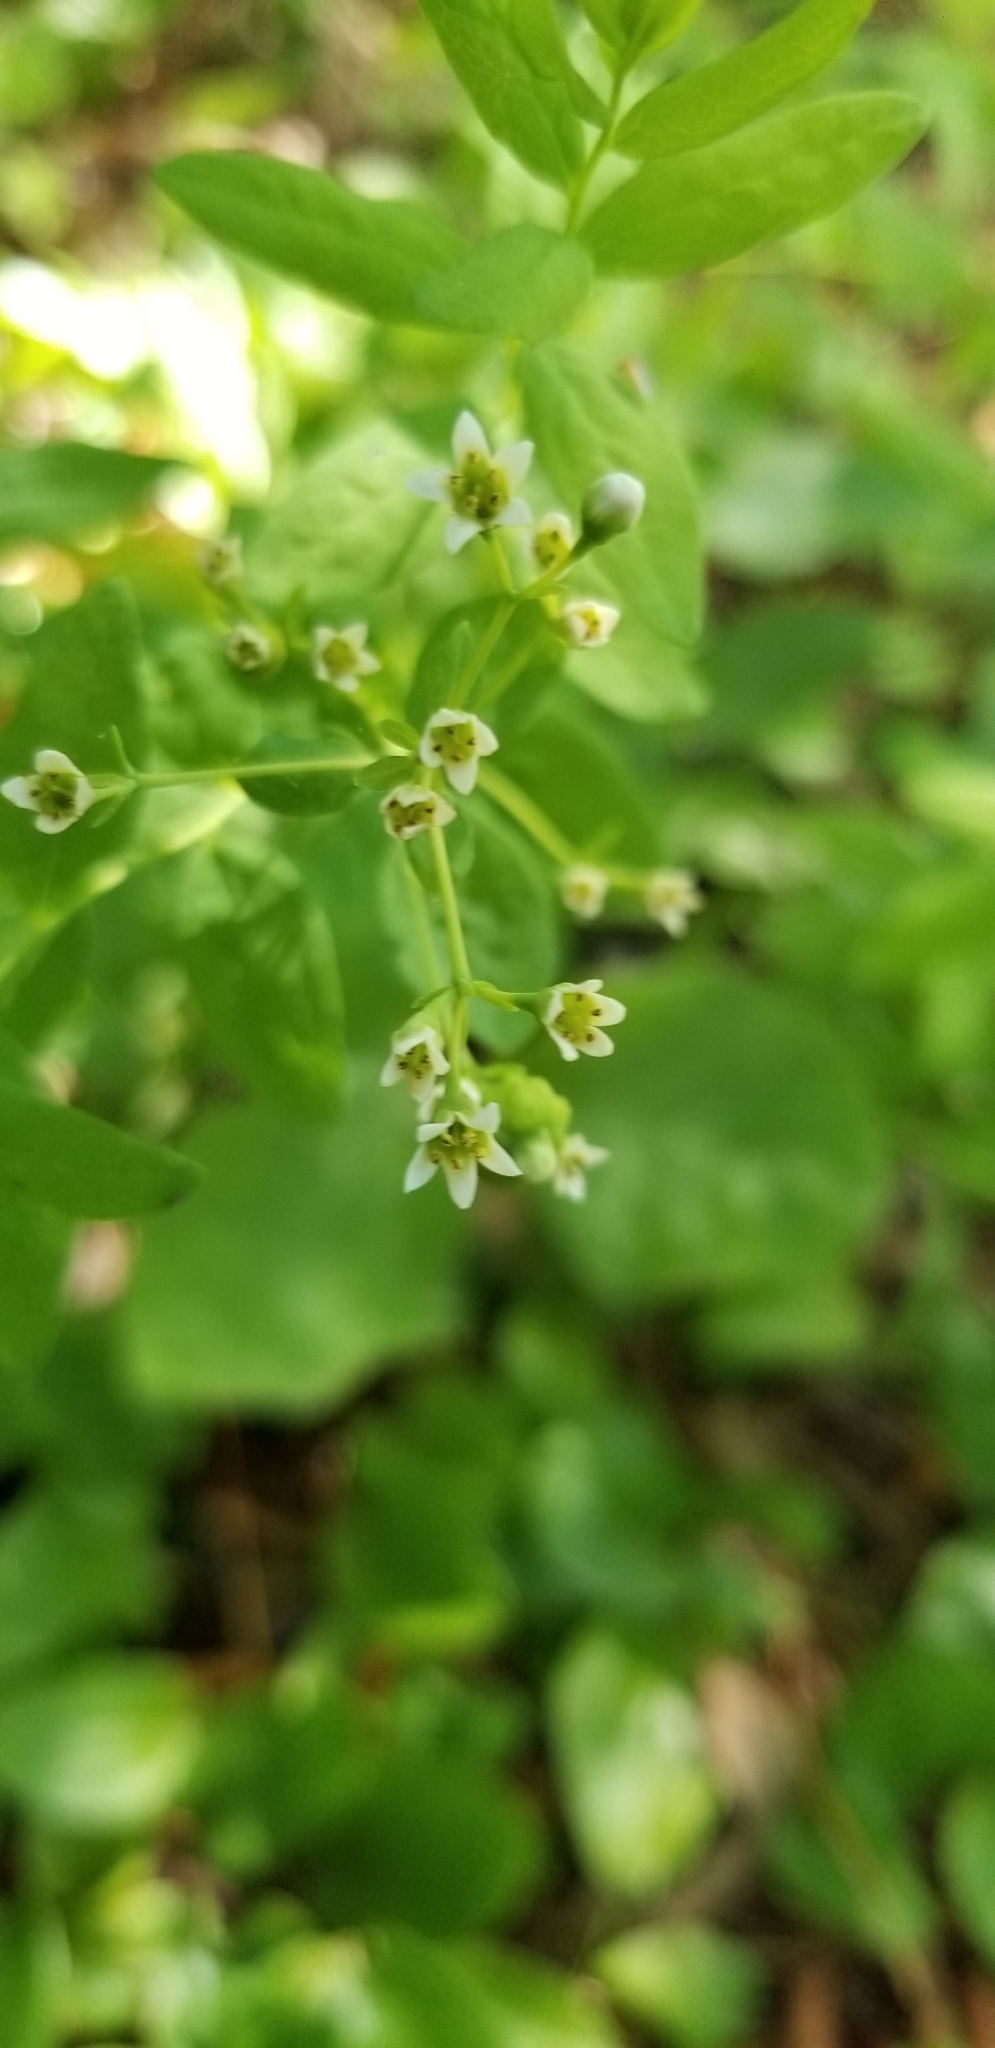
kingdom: Plantae
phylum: Tracheophyta
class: Magnoliopsida
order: Santalales
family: Comandraceae
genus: Comandra
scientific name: Comandra umbellata
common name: Bastard toadflax
